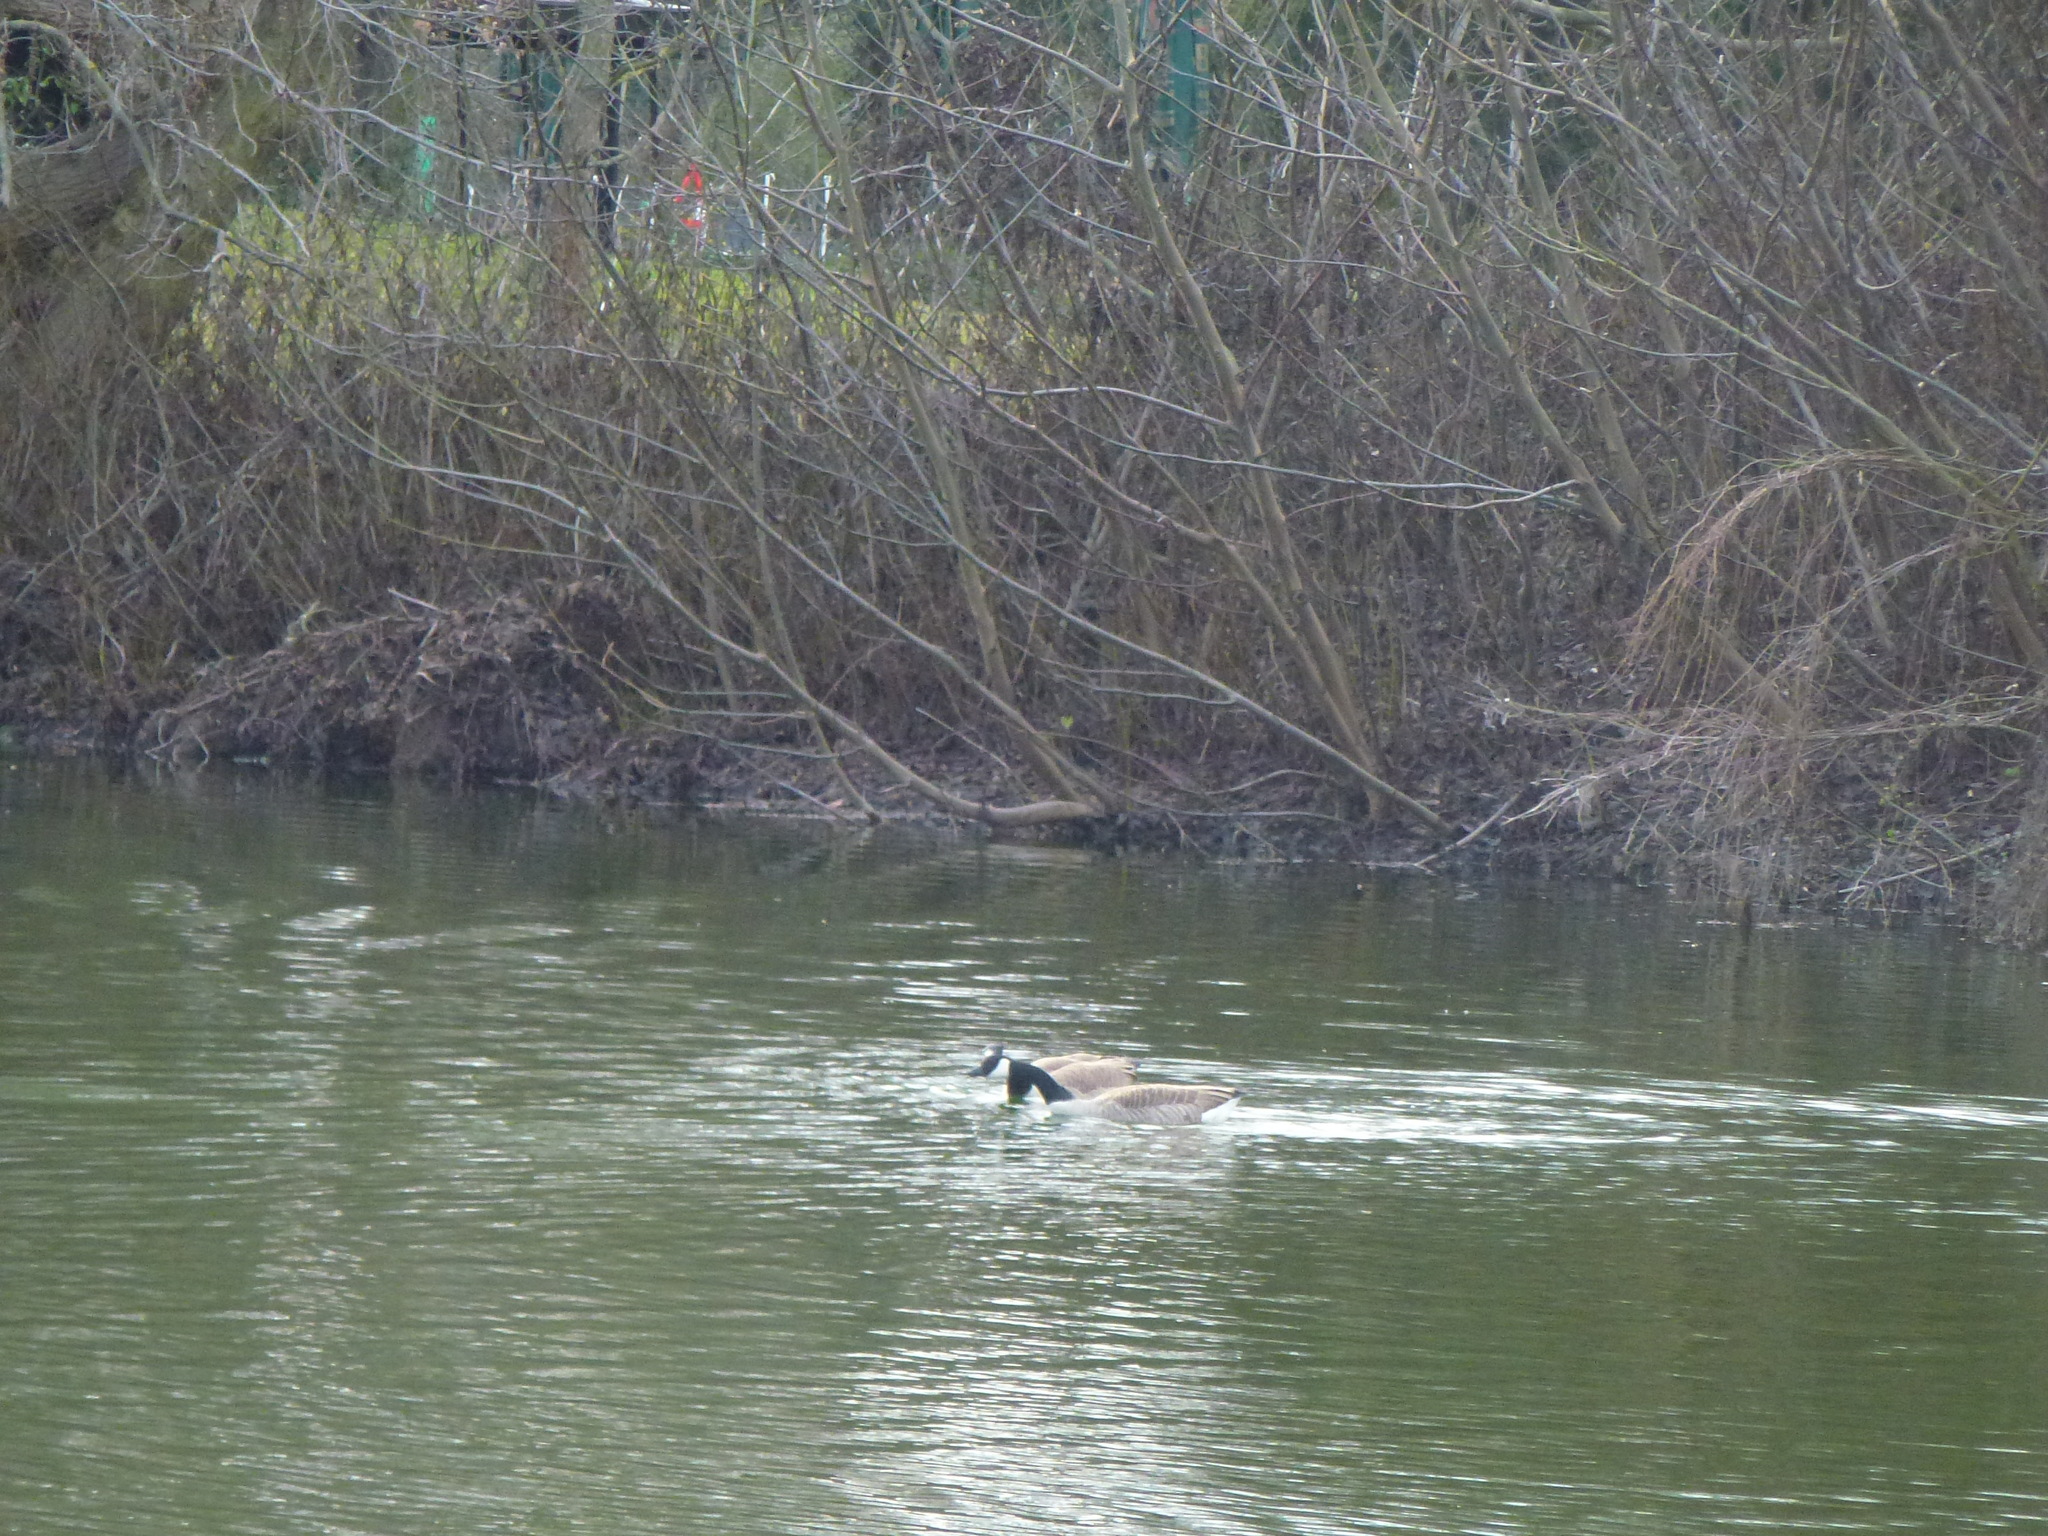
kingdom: Animalia
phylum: Chordata
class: Aves
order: Anseriformes
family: Anatidae
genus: Branta
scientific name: Branta canadensis
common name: Canada goose
